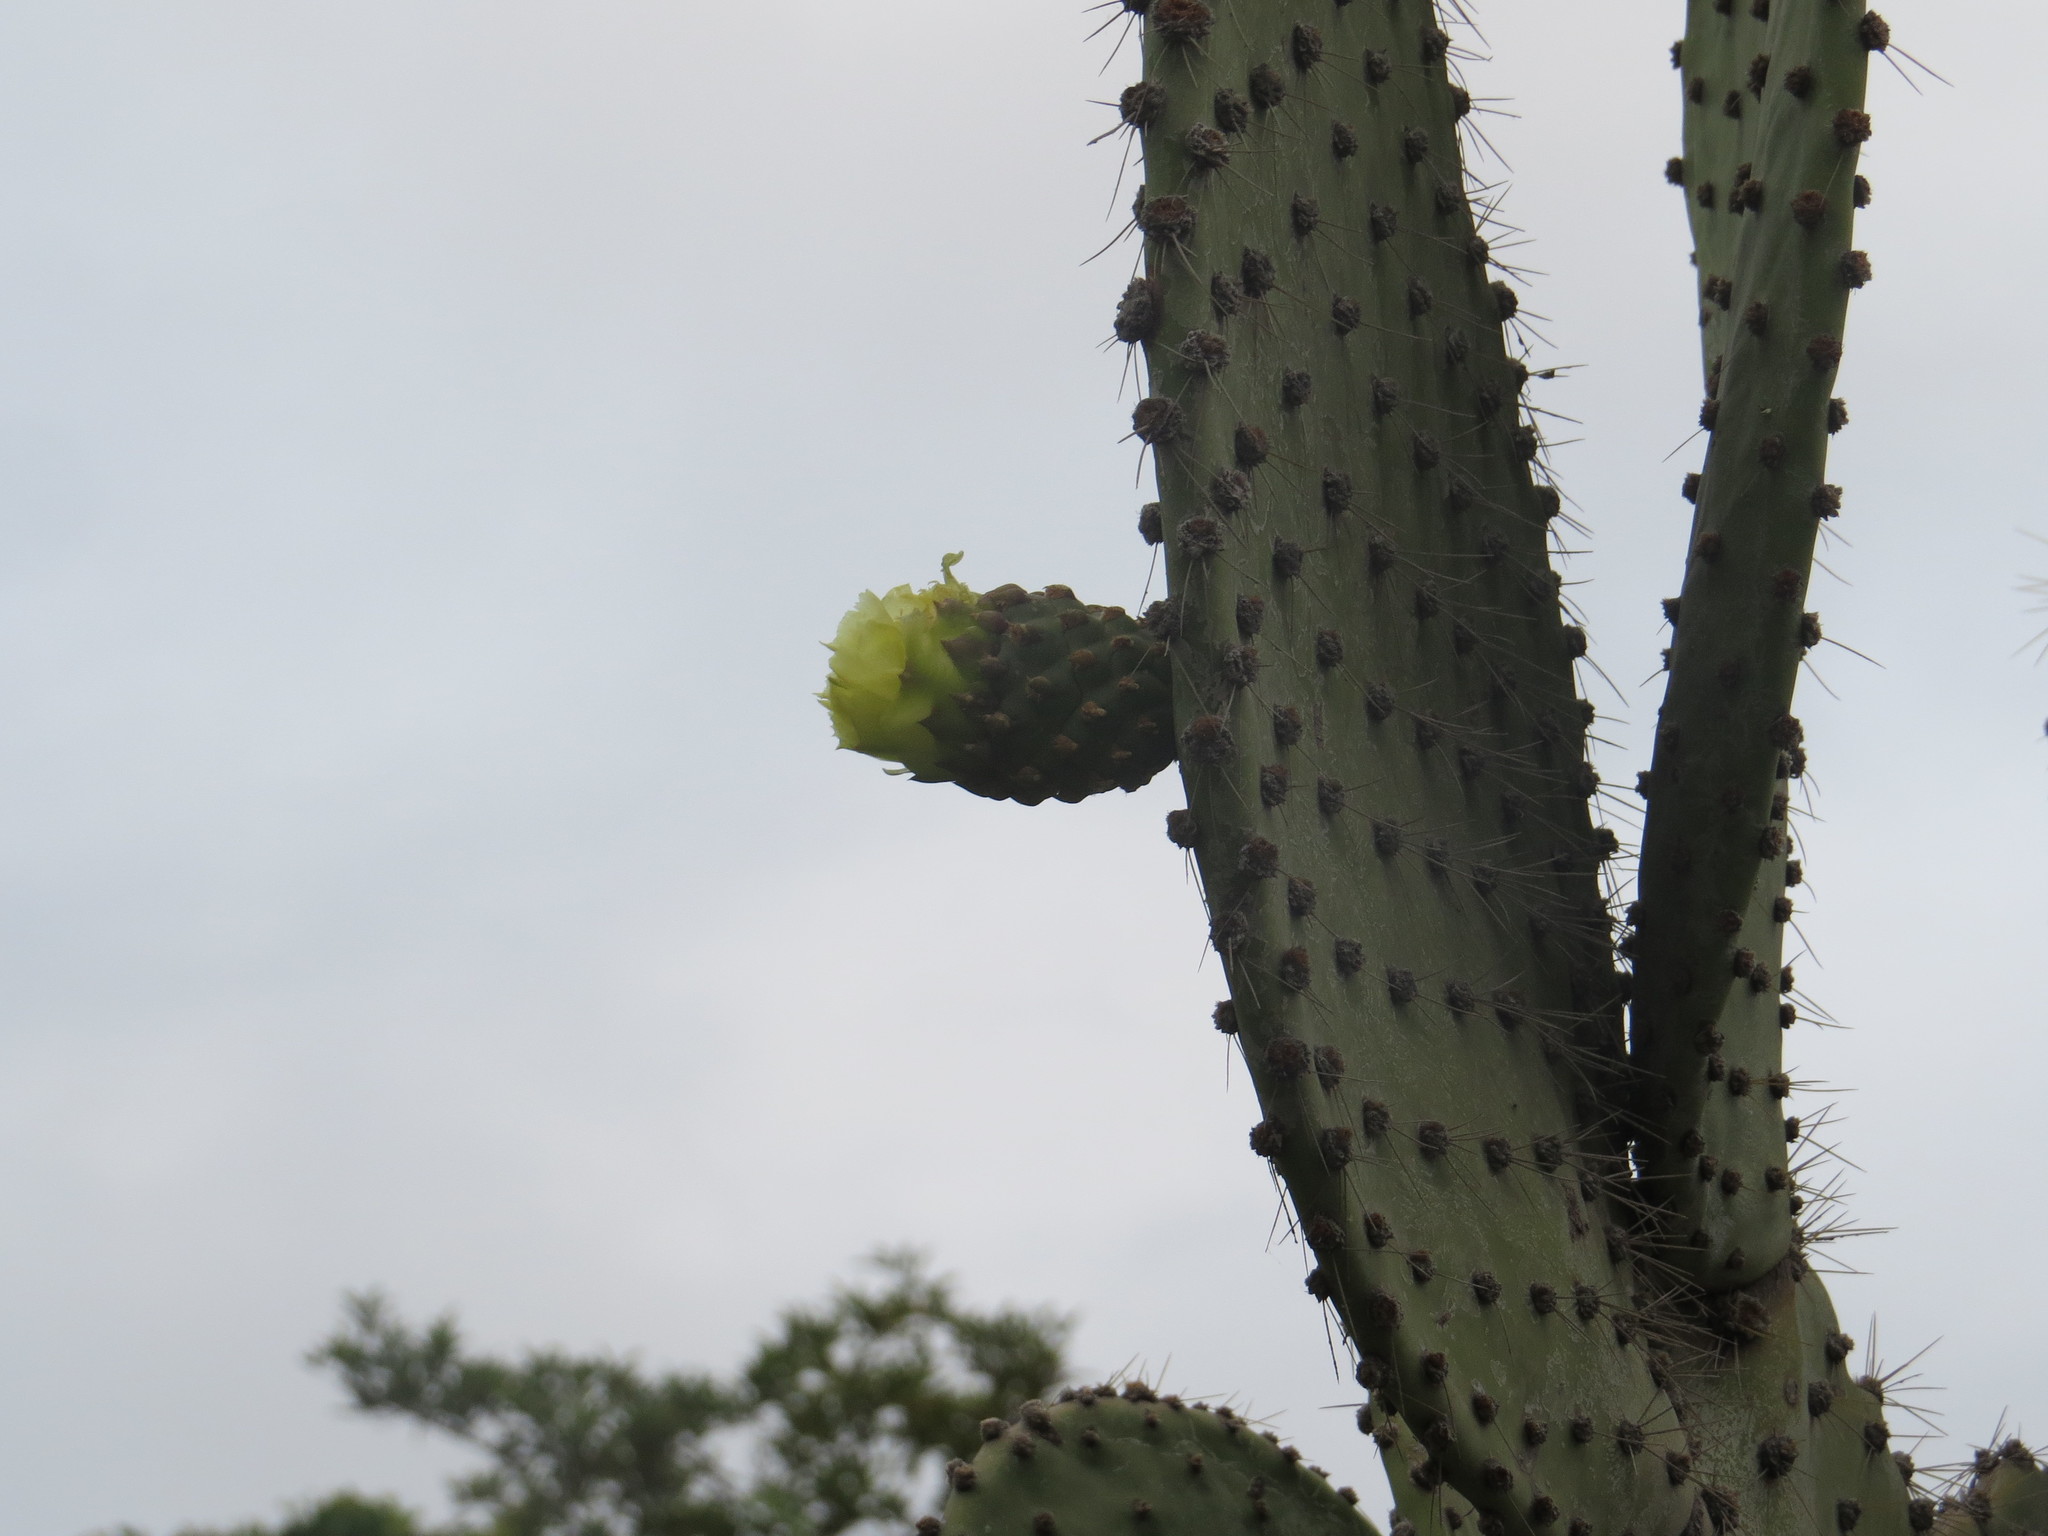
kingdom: Plantae
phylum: Tracheophyta
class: Magnoliopsida
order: Caryophyllales
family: Cactaceae
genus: Opuntia
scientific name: Opuntia galapageia
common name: Galápagos prickly pear
